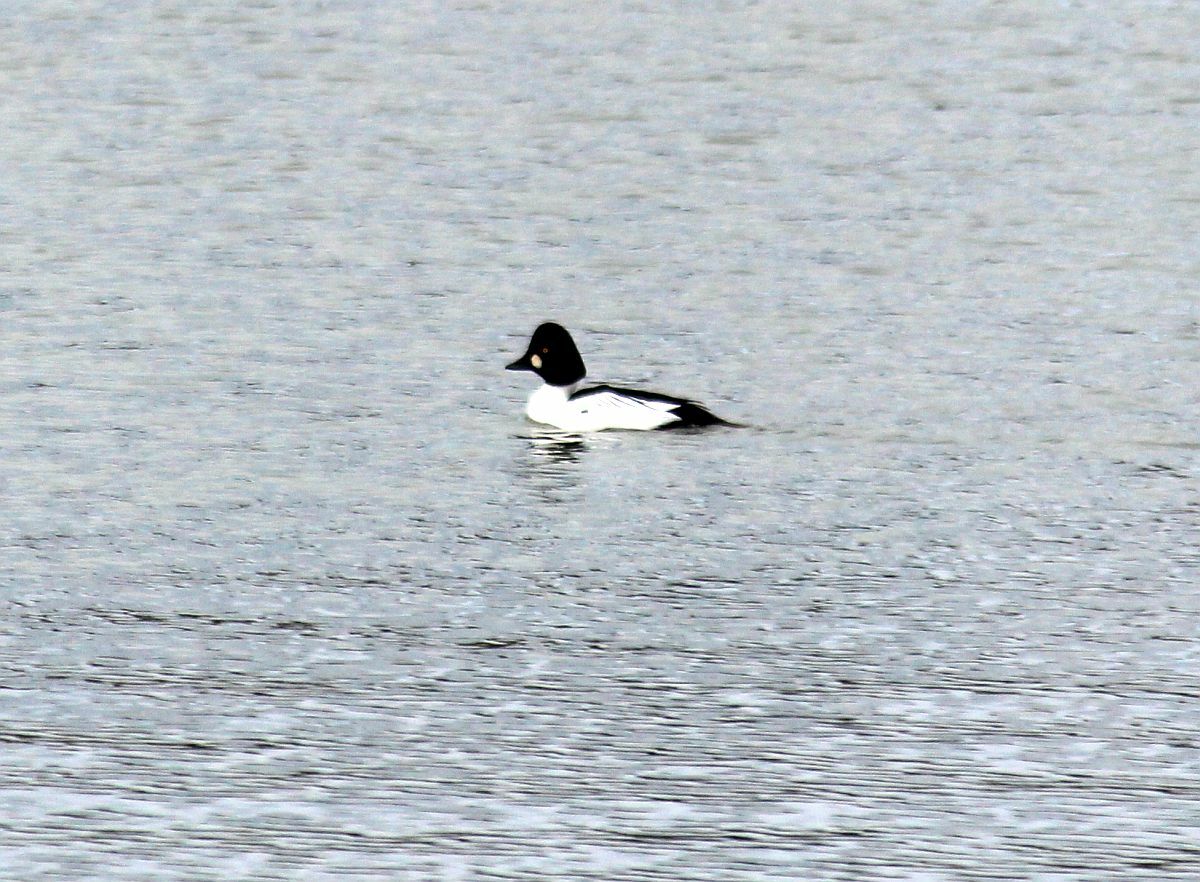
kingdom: Animalia
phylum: Chordata
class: Aves
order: Anseriformes
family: Anatidae
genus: Bucephala
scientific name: Bucephala clangula
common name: Common goldeneye
